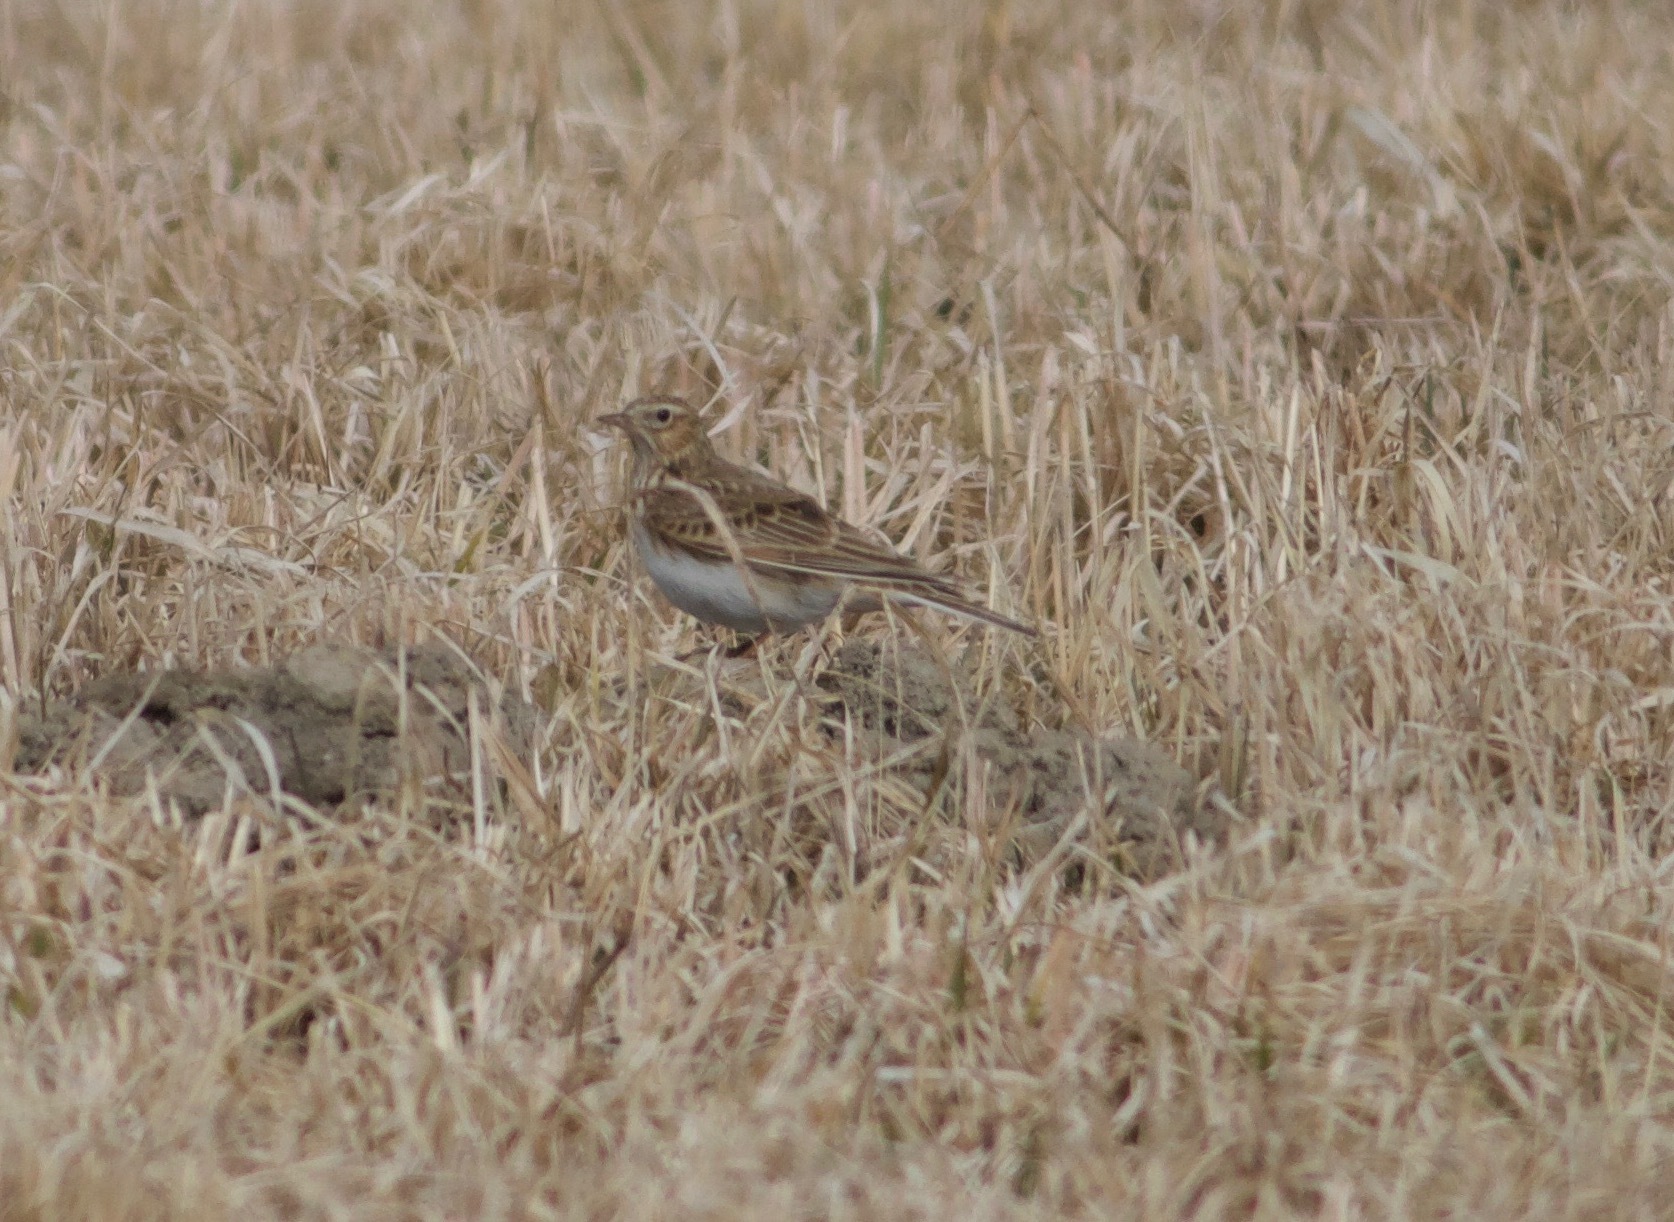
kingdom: Animalia
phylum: Chordata
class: Aves
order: Passeriformes
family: Alaudidae
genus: Alauda
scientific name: Alauda arvensis
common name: Eurasian skylark
